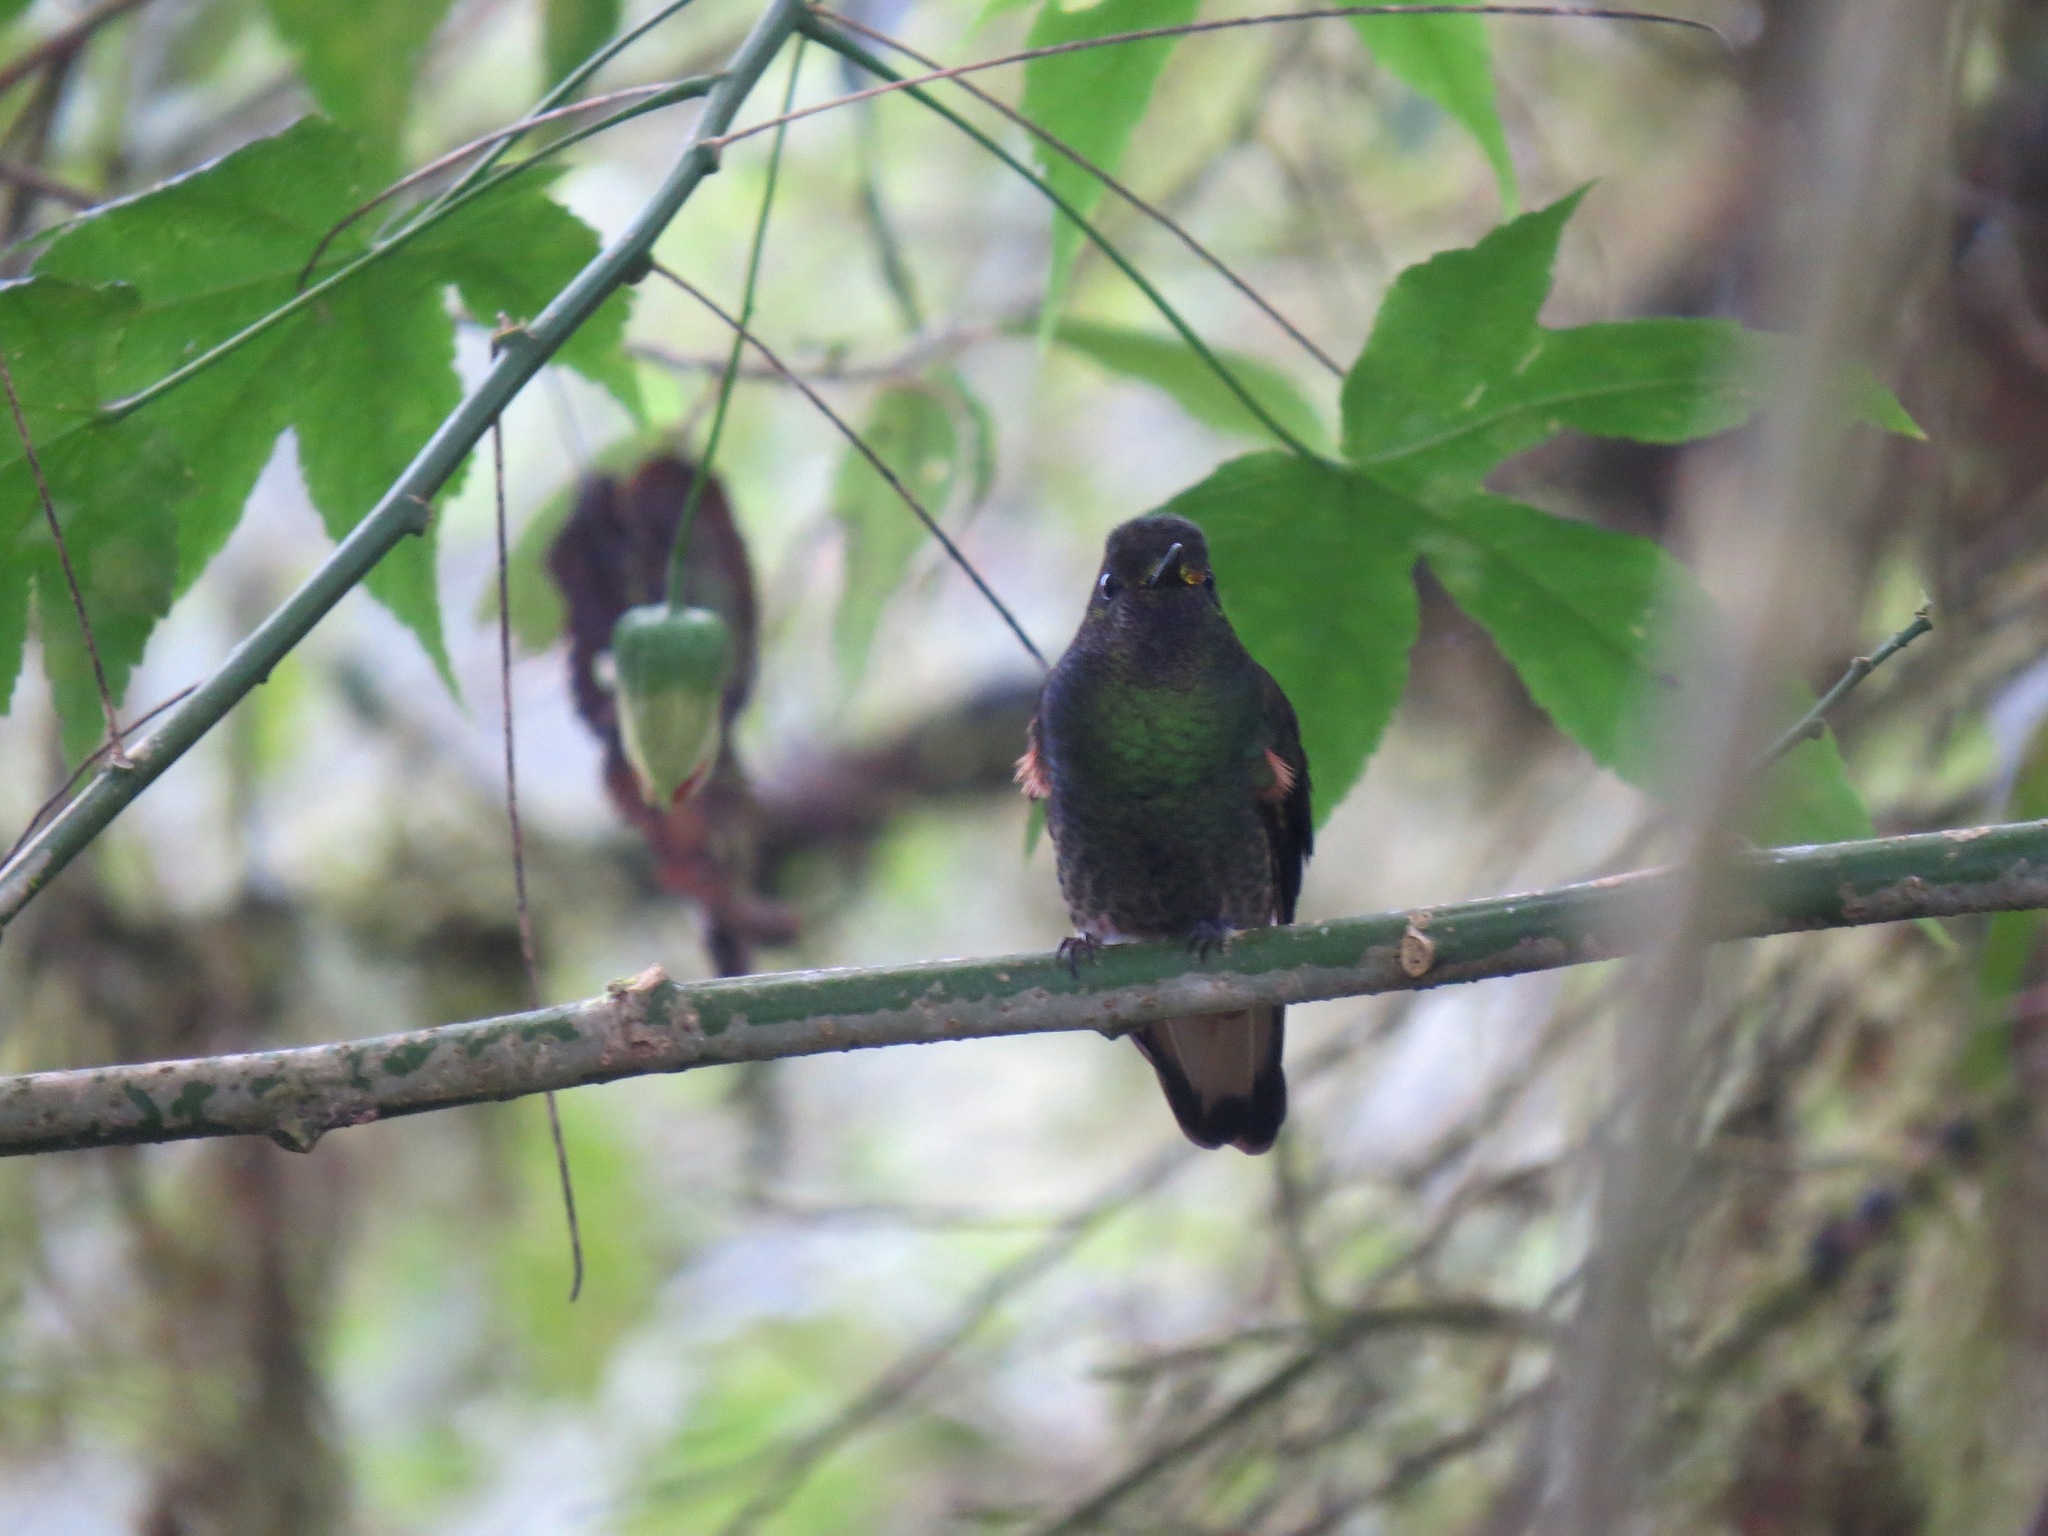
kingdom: Animalia
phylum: Chordata
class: Aves
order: Apodiformes
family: Trochilidae
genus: Boissonneaua
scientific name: Boissonneaua flavescens
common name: Buff-tailed coronet
